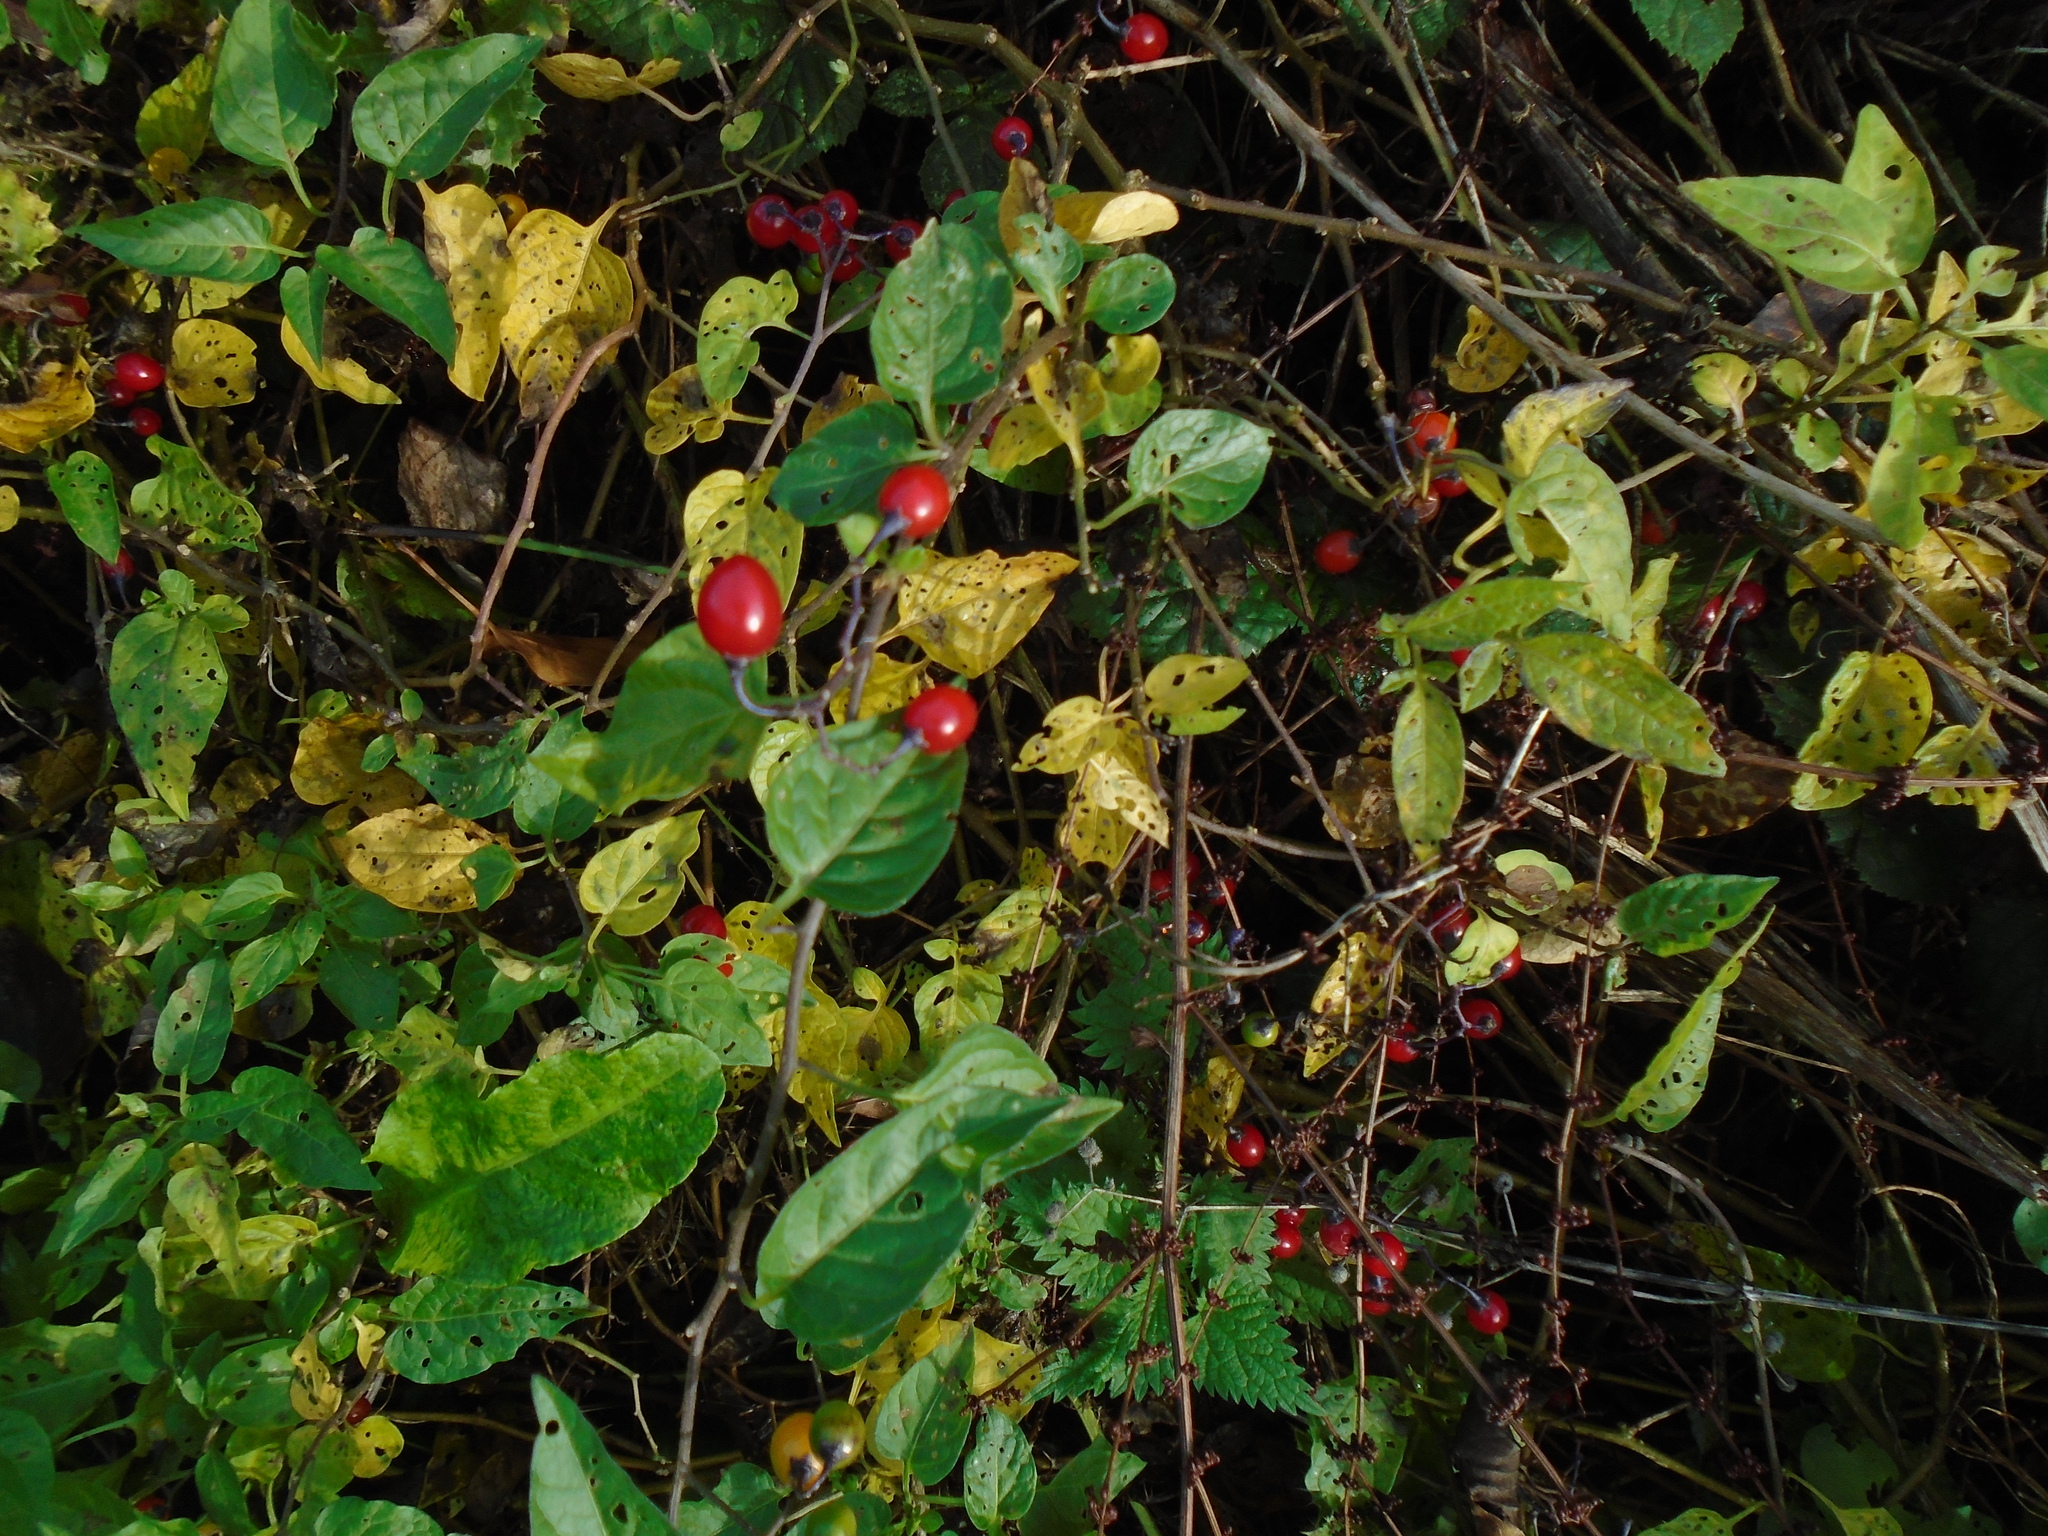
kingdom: Plantae
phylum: Tracheophyta
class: Magnoliopsida
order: Solanales
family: Solanaceae
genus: Solanum
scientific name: Solanum dulcamara
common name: Climbing nightshade
